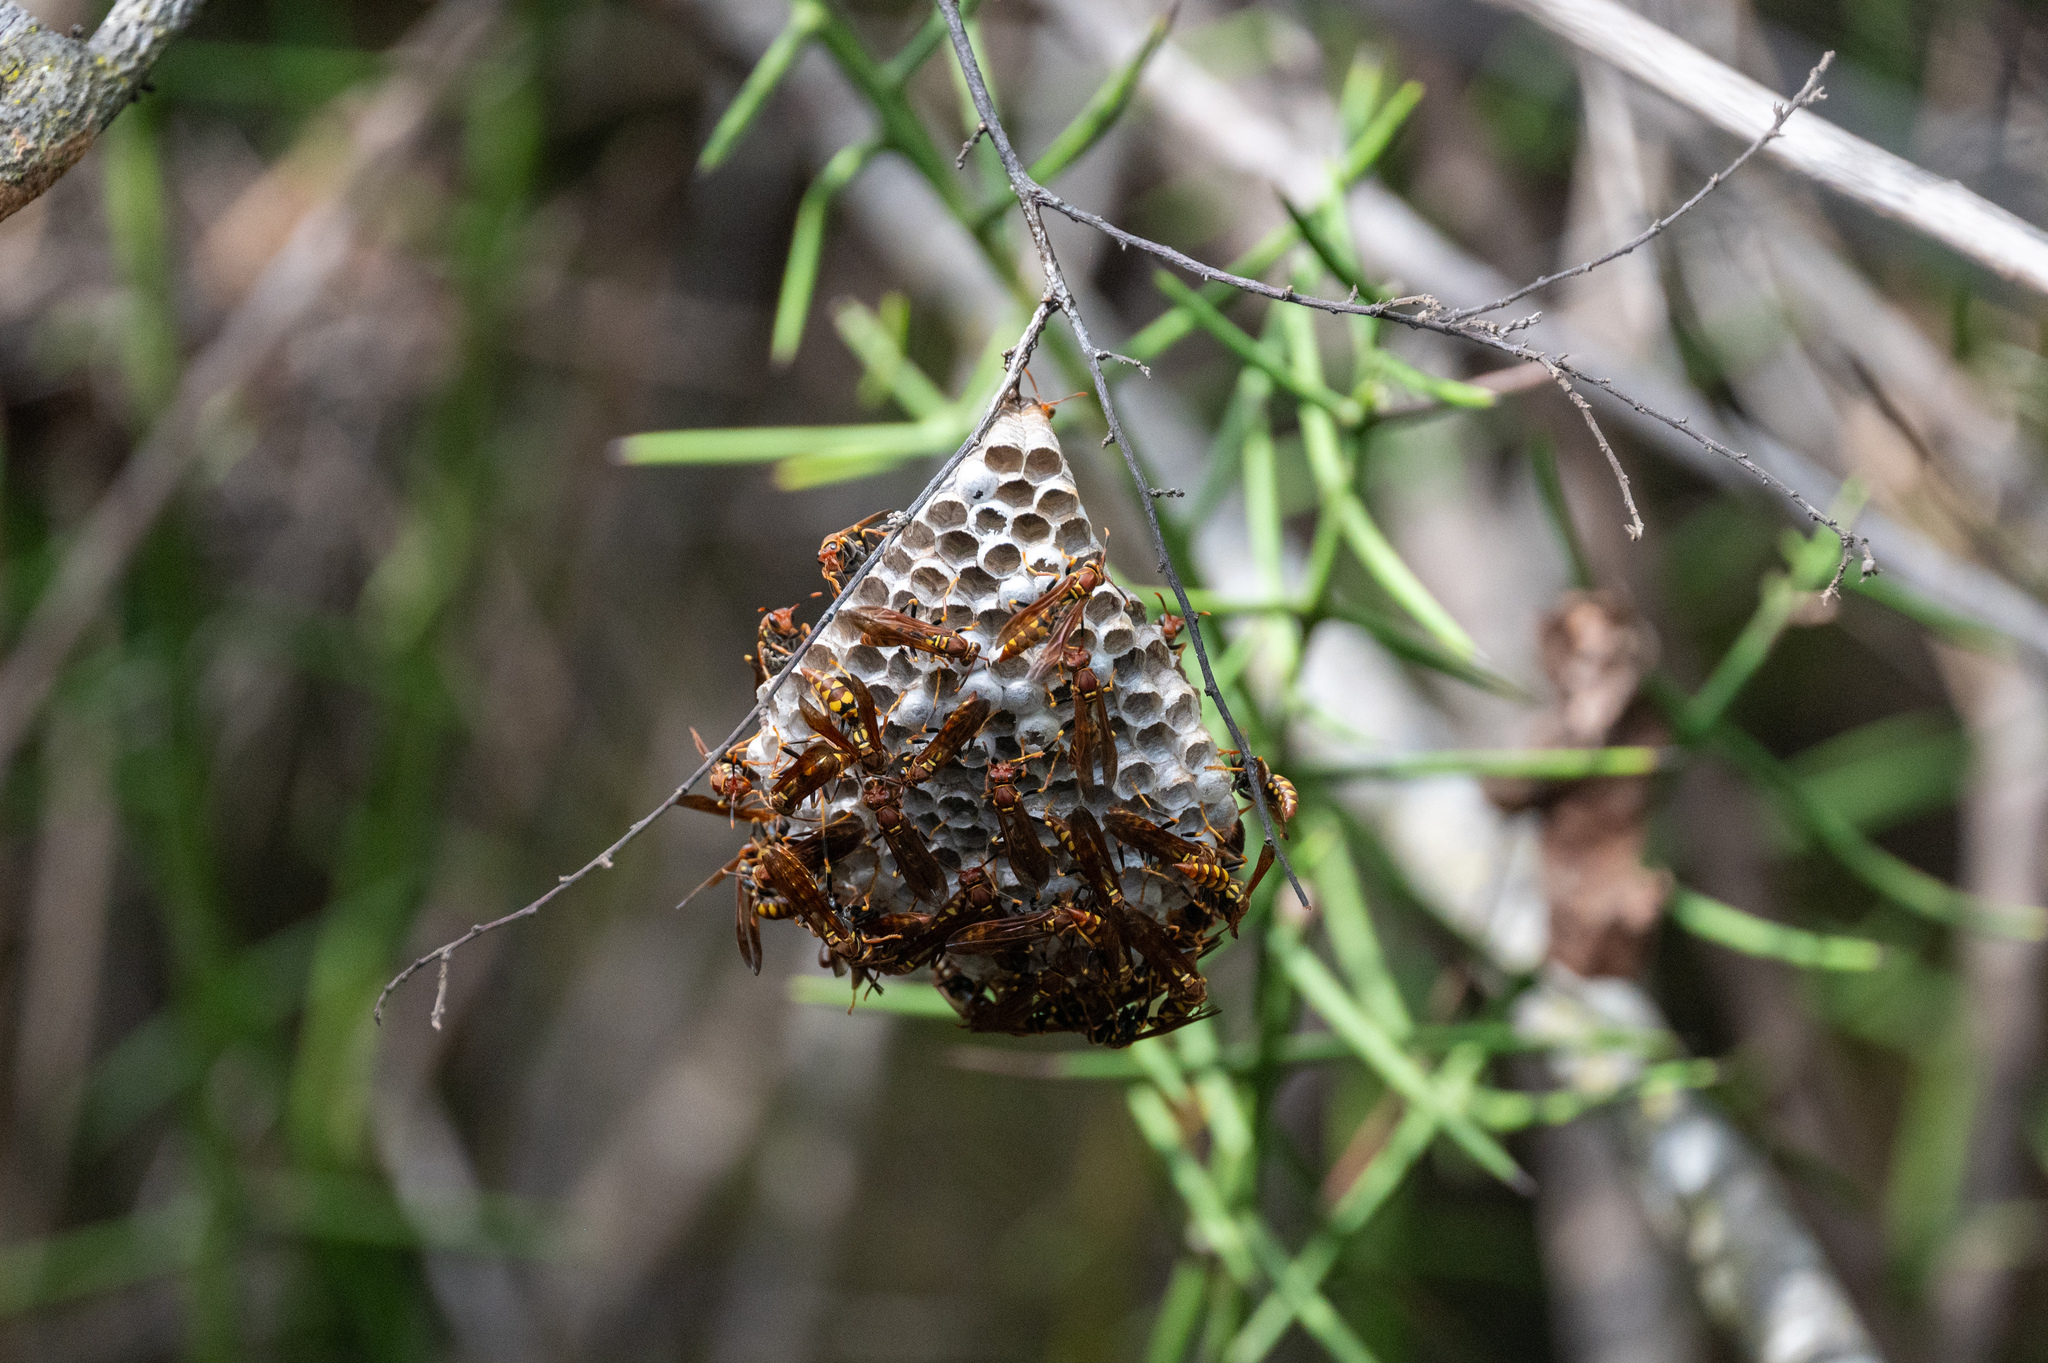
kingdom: Animalia
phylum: Arthropoda
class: Insecta
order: Hymenoptera
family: Eumenidae
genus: Polistes
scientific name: Polistes versicolor
